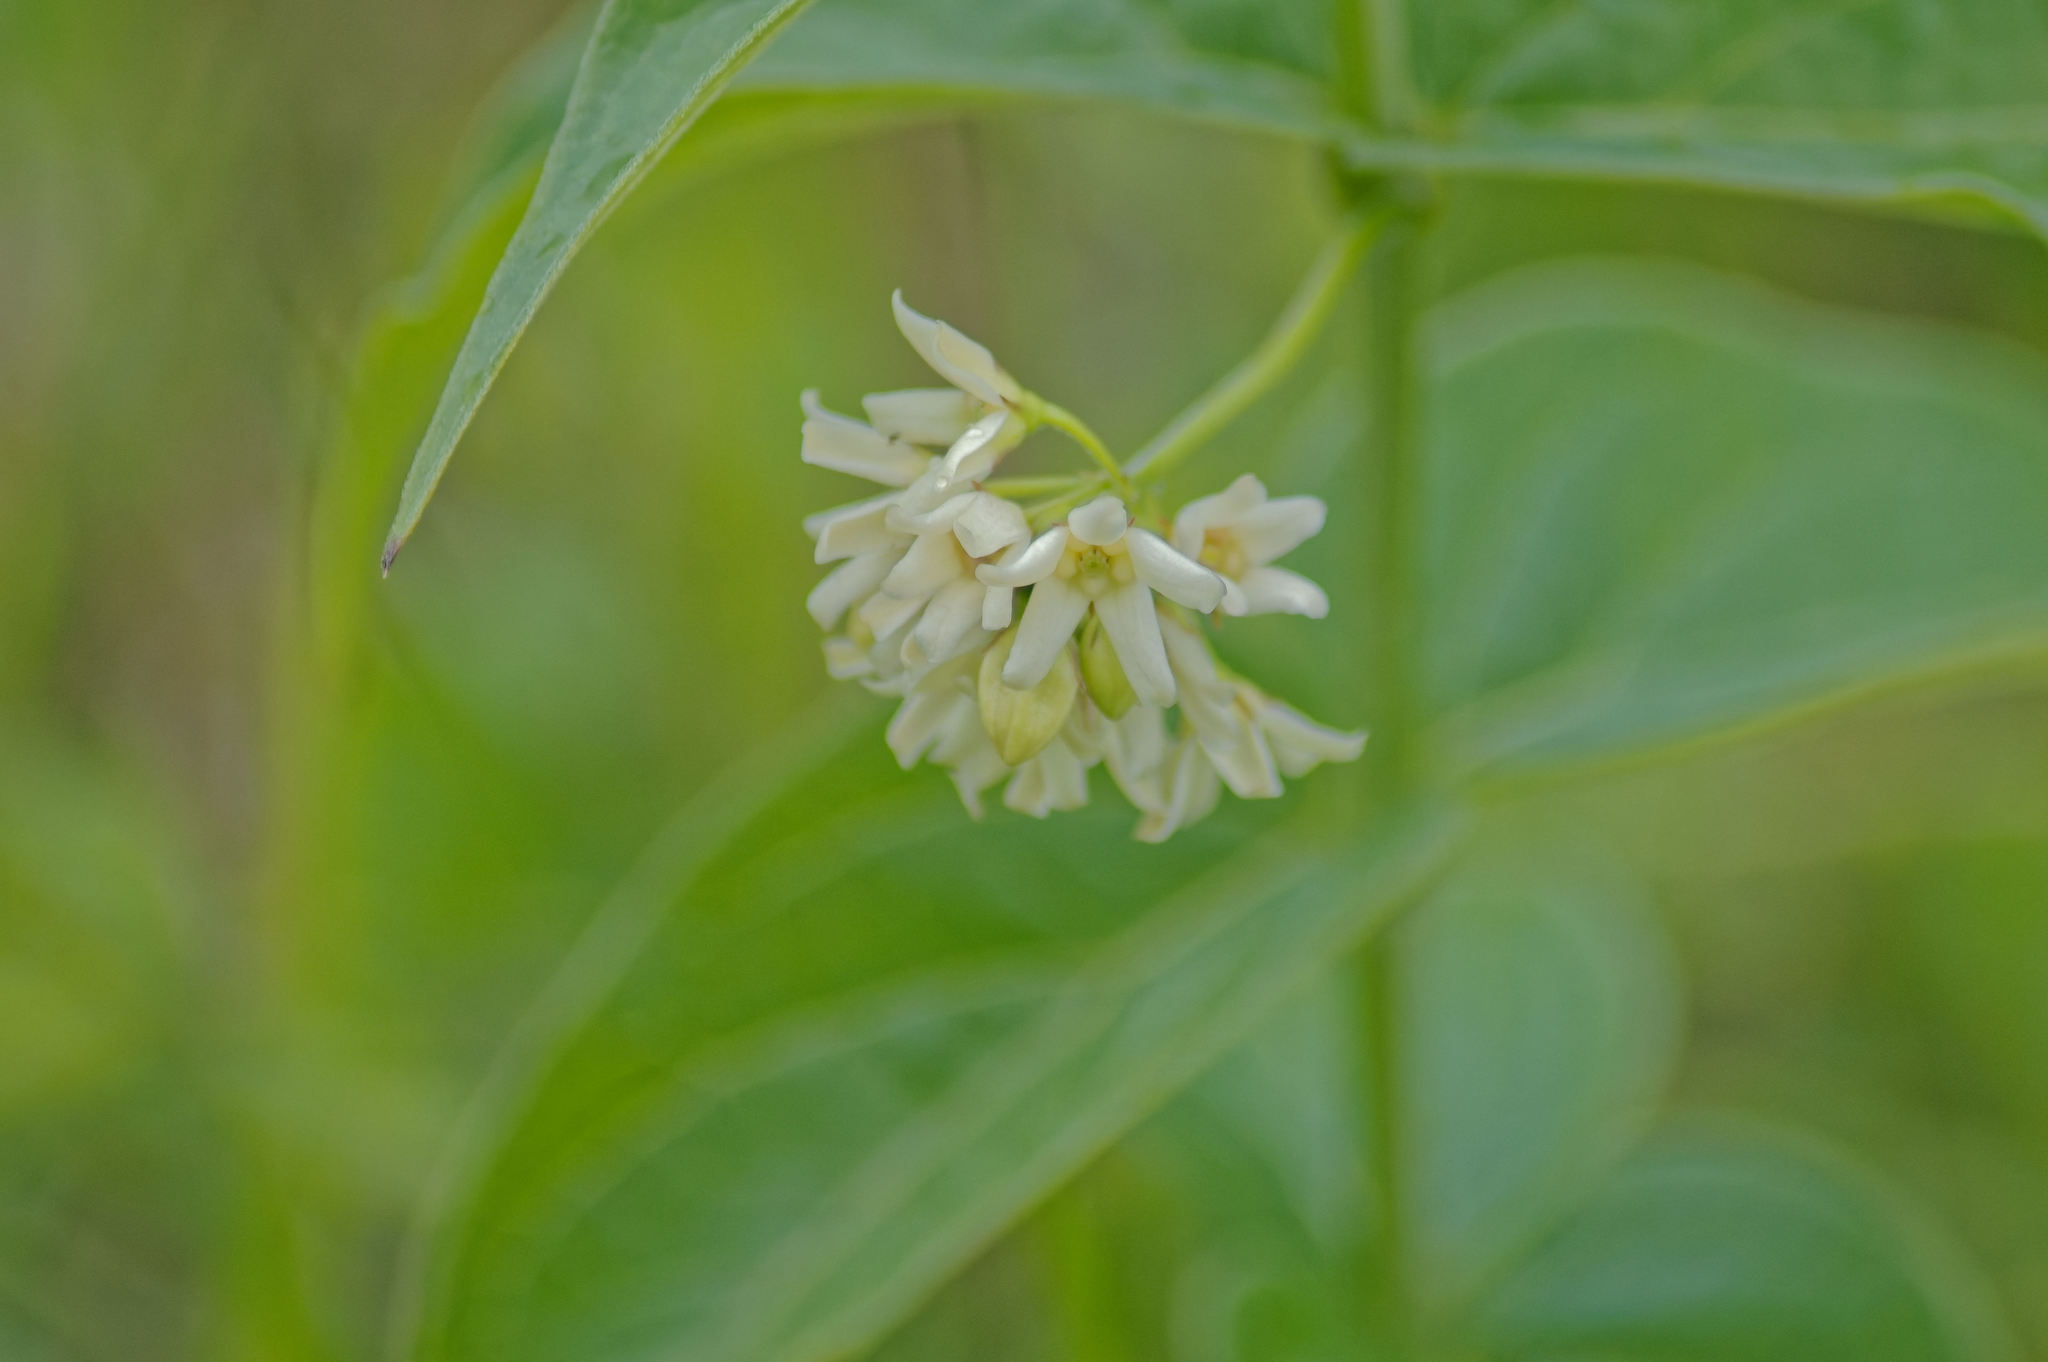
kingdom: Plantae
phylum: Tracheophyta
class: Magnoliopsida
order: Gentianales
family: Apocynaceae
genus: Vincetoxicum
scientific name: Vincetoxicum hirundinaria
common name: White swallowwort
